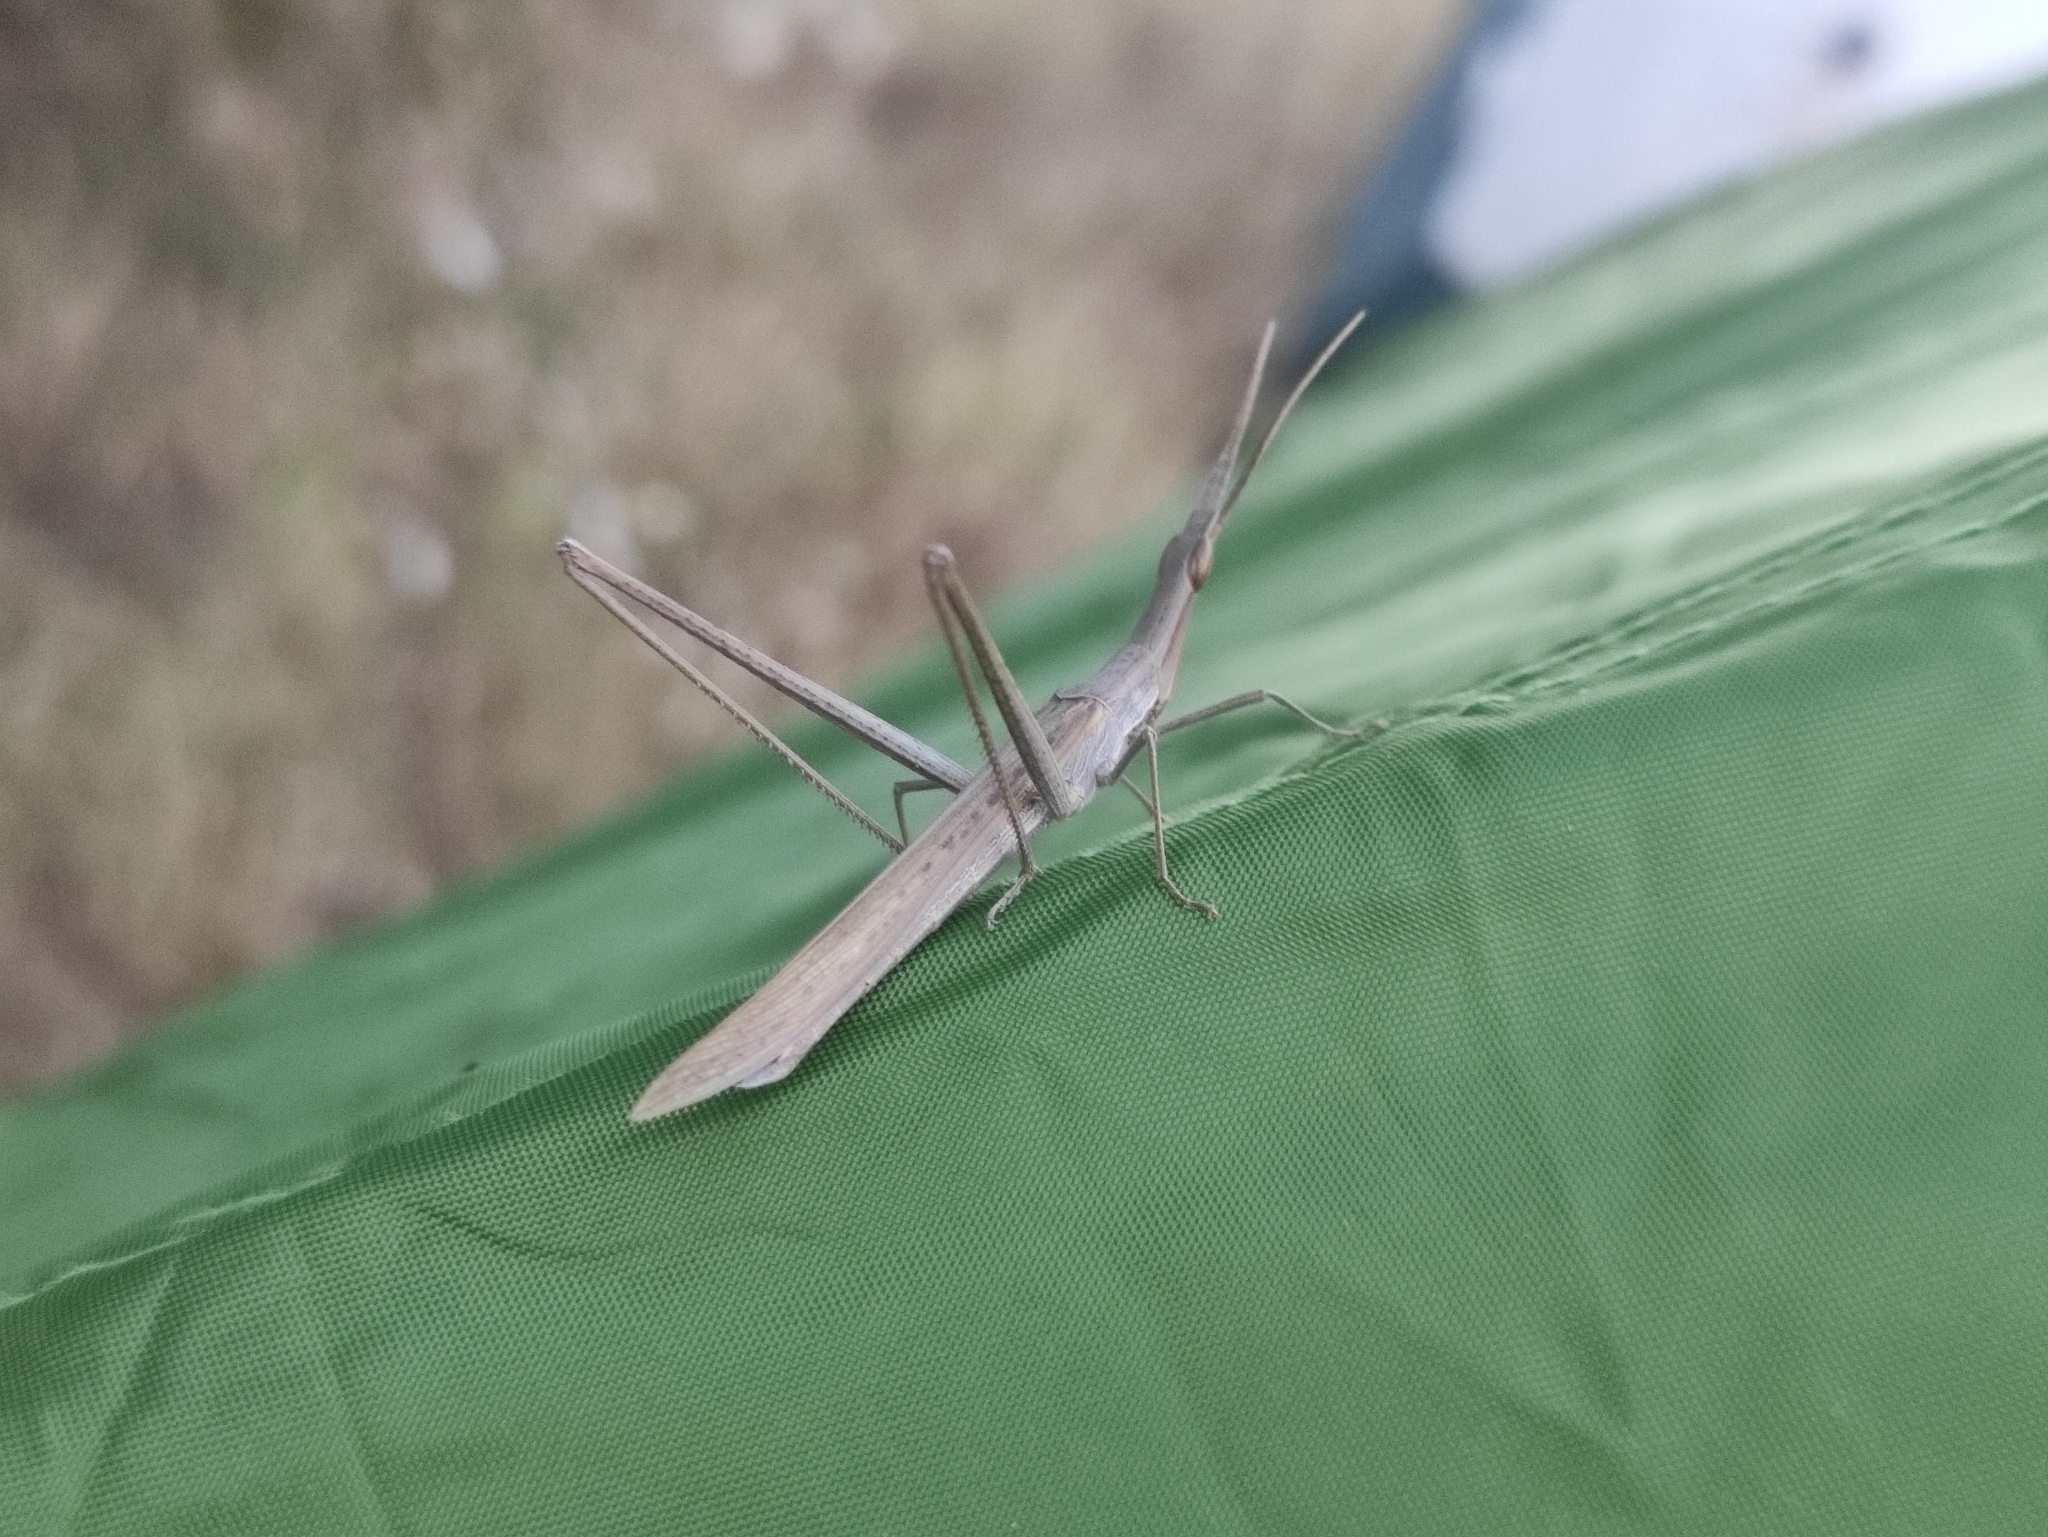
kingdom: Animalia
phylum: Arthropoda
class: Insecta
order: Orthoptera
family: Acrididae
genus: Acrida
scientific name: Acrida ungarica
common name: Common cone-headed grasshopper
